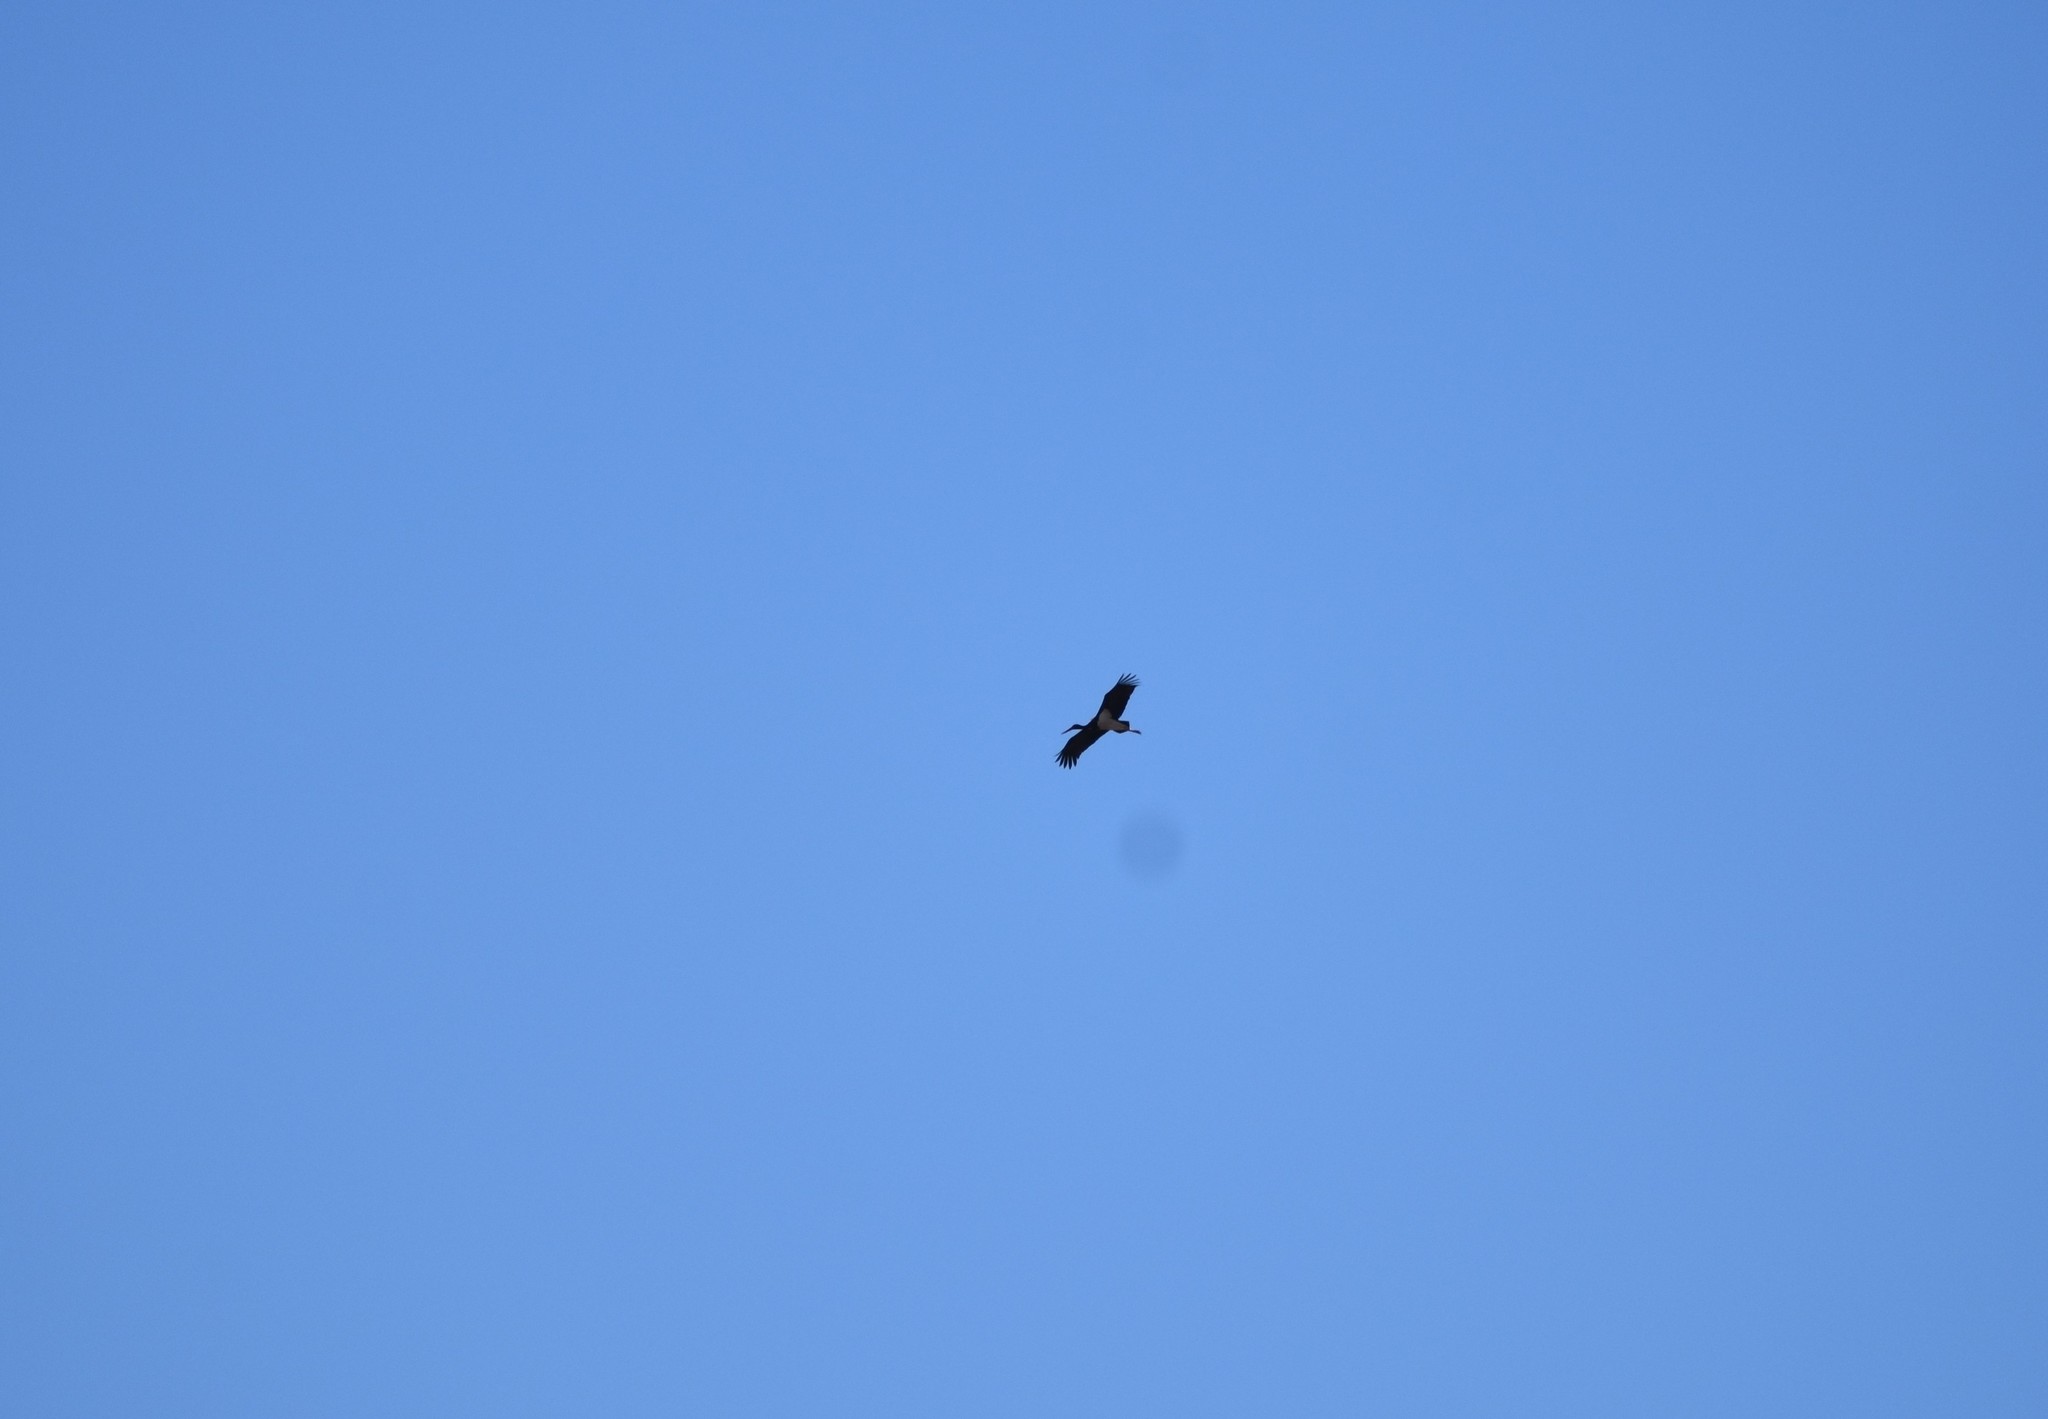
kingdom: Animalia
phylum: Chordata
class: Aves
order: Ciconiiformes
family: Ciconiidae
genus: Ciconia
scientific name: Ciconia nigra
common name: Black stork
